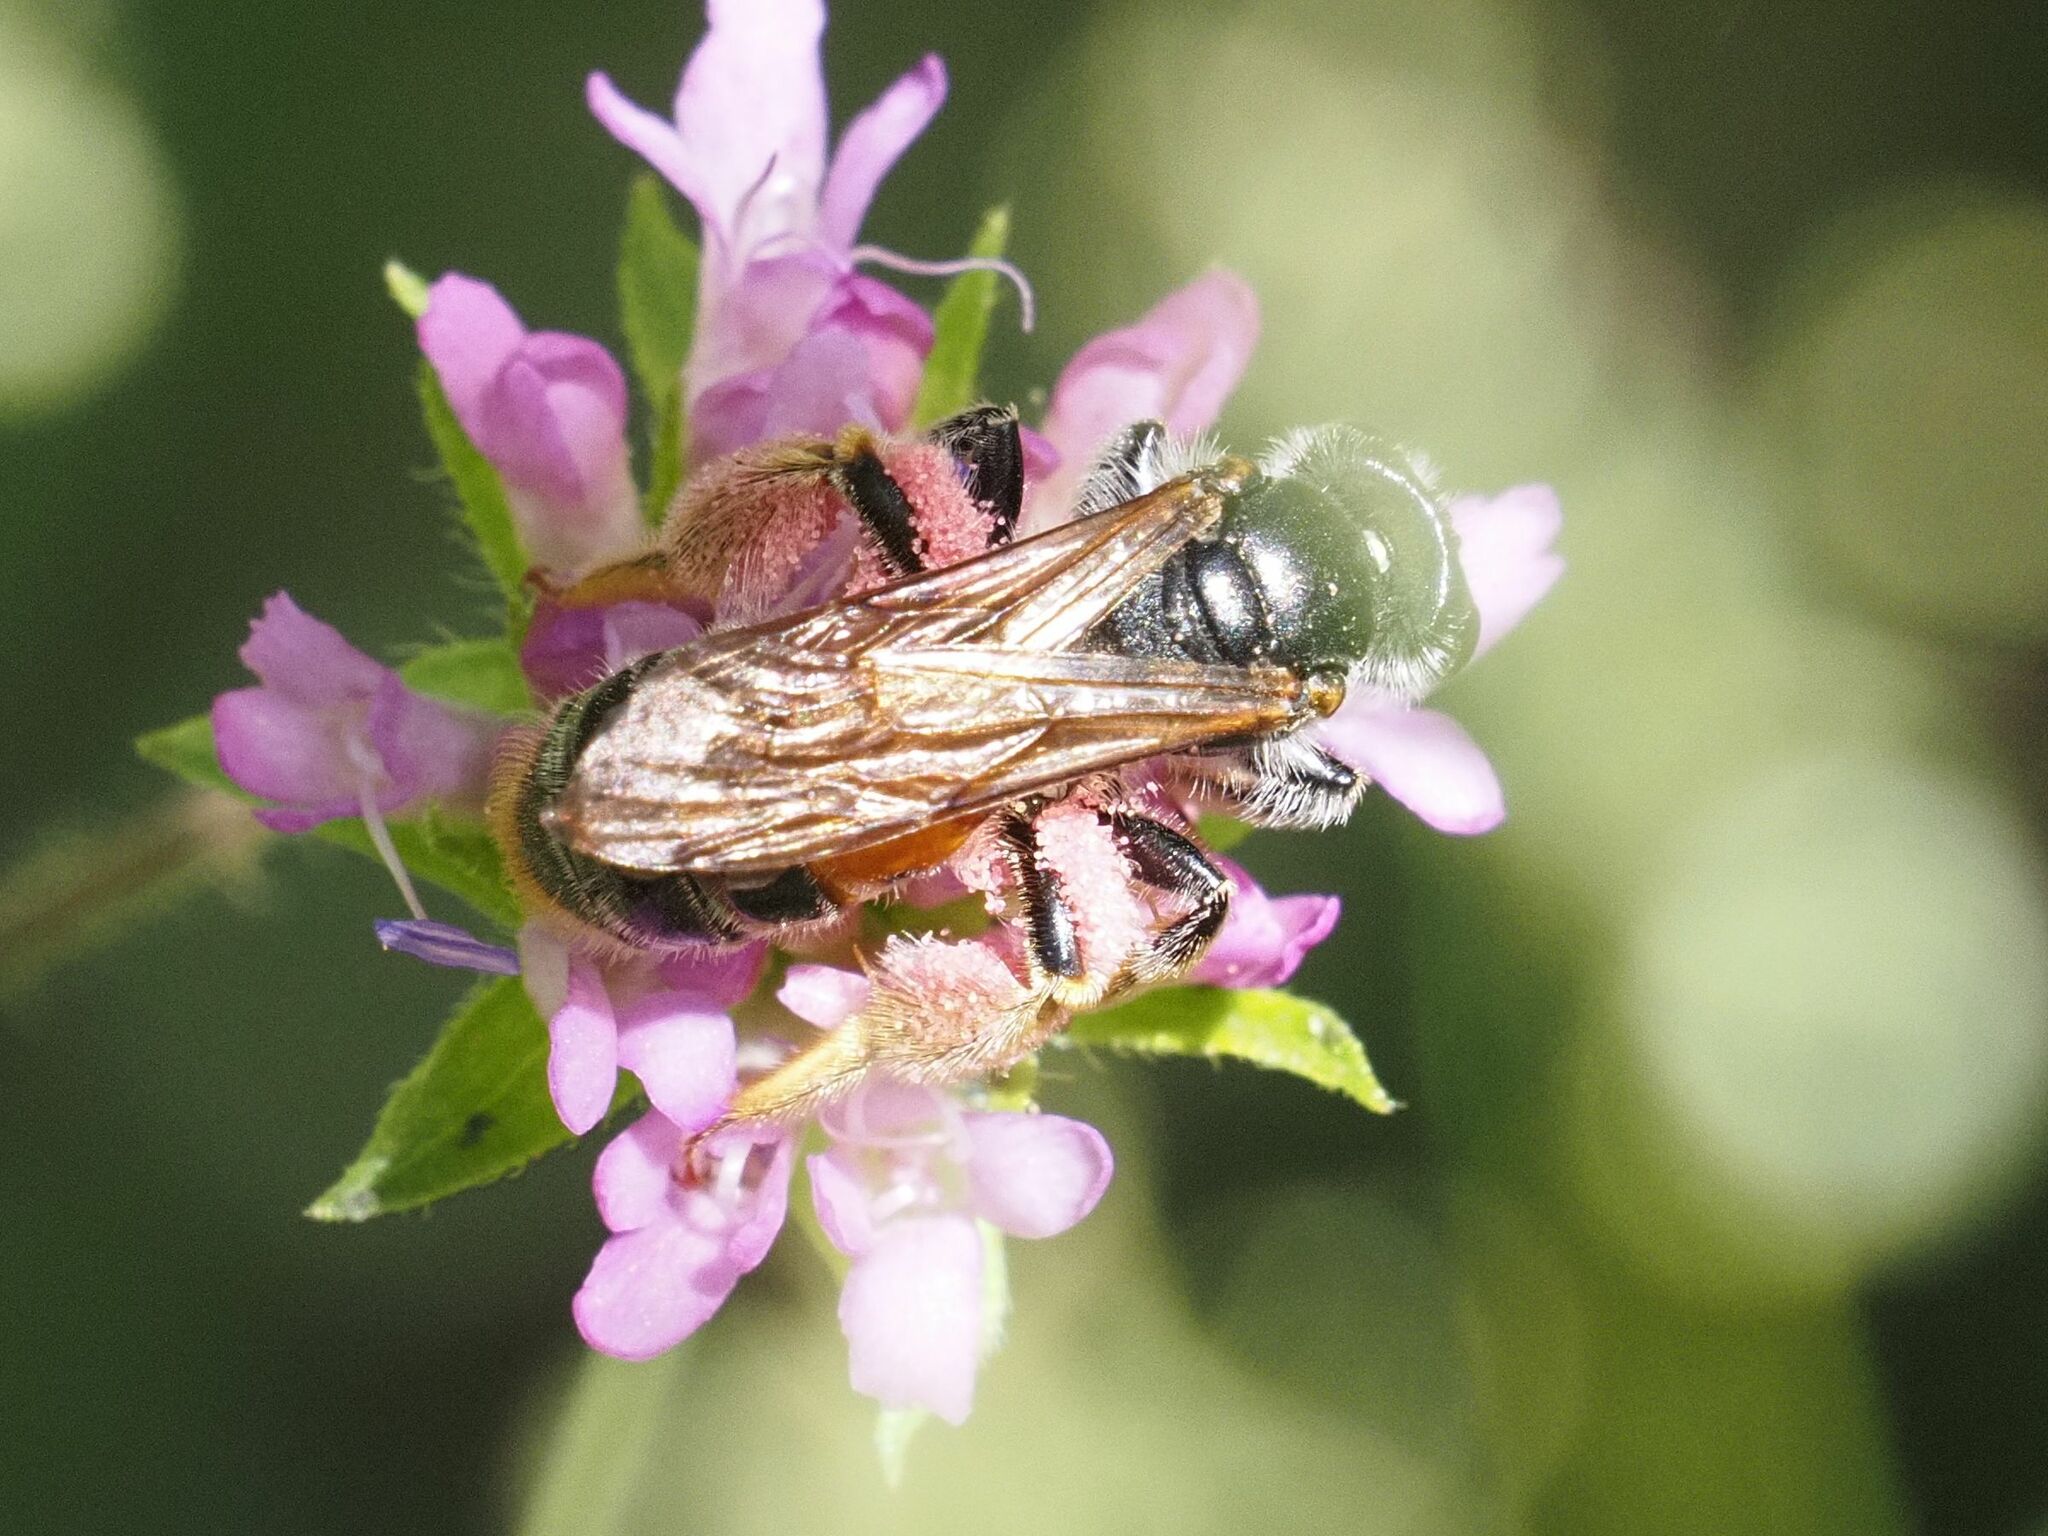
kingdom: Animalia
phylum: Arthropoda
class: Insecta
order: Hymenoptera
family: Andrenidae
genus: Andrena
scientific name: Andrena hattorfiana
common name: Large scabious mining bee
